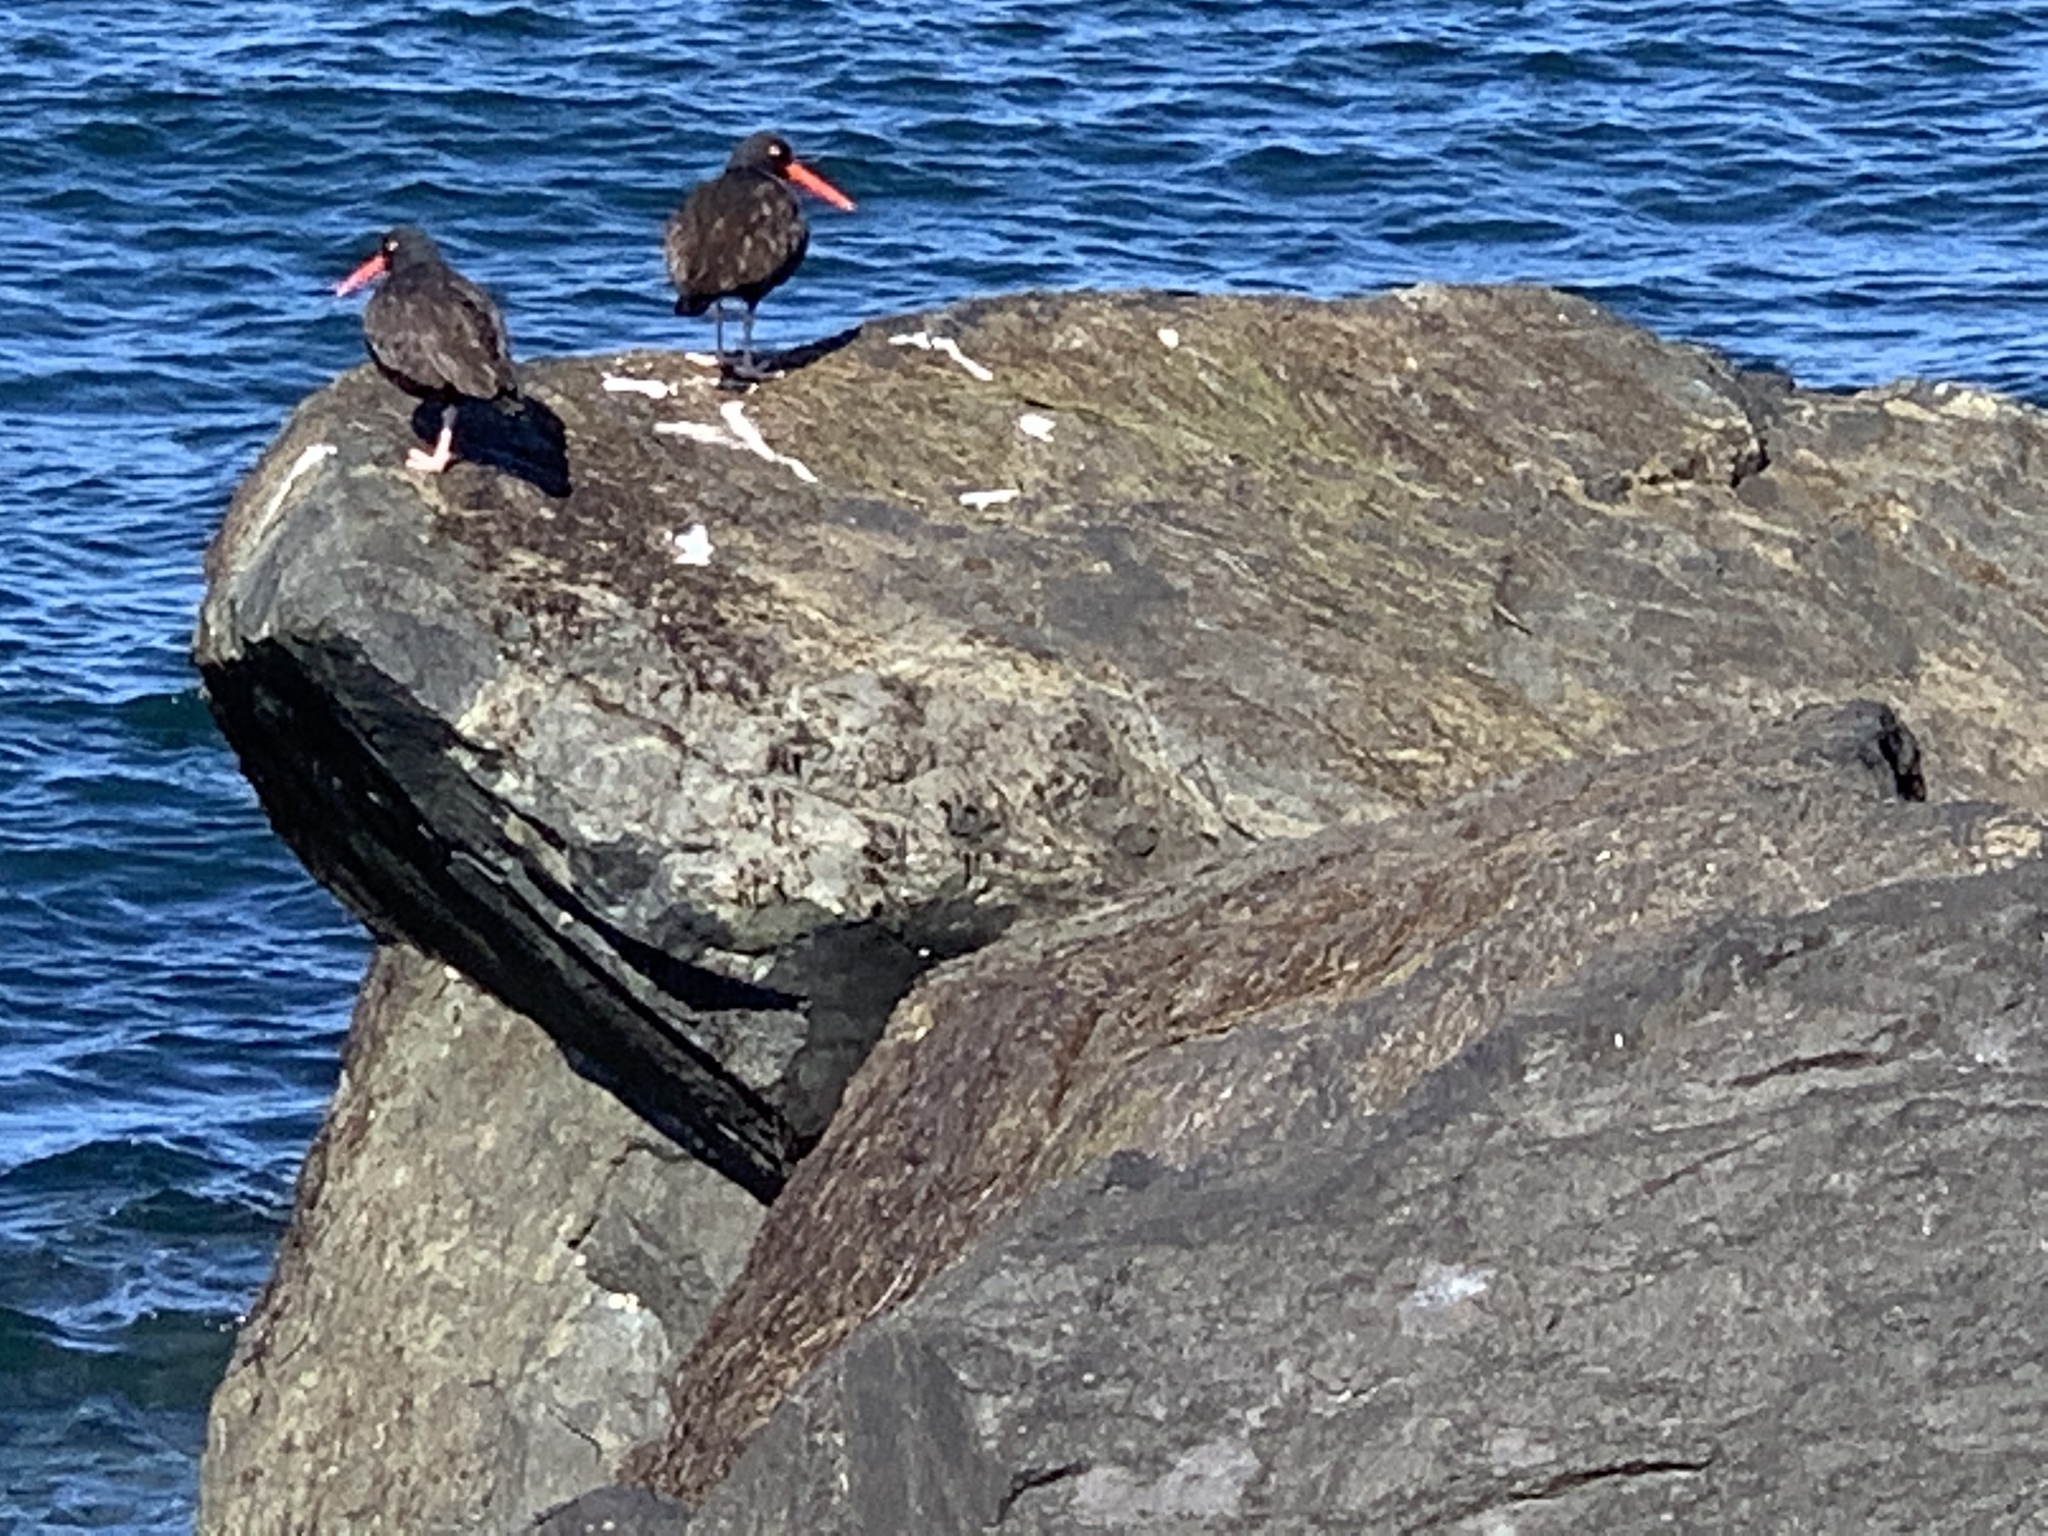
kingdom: Animalia
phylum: Chordata
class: Aves
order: Charadriiformes
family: Haematopodidae
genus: Haematopus
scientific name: Haematopus bachmani
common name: Black oystercatcher
